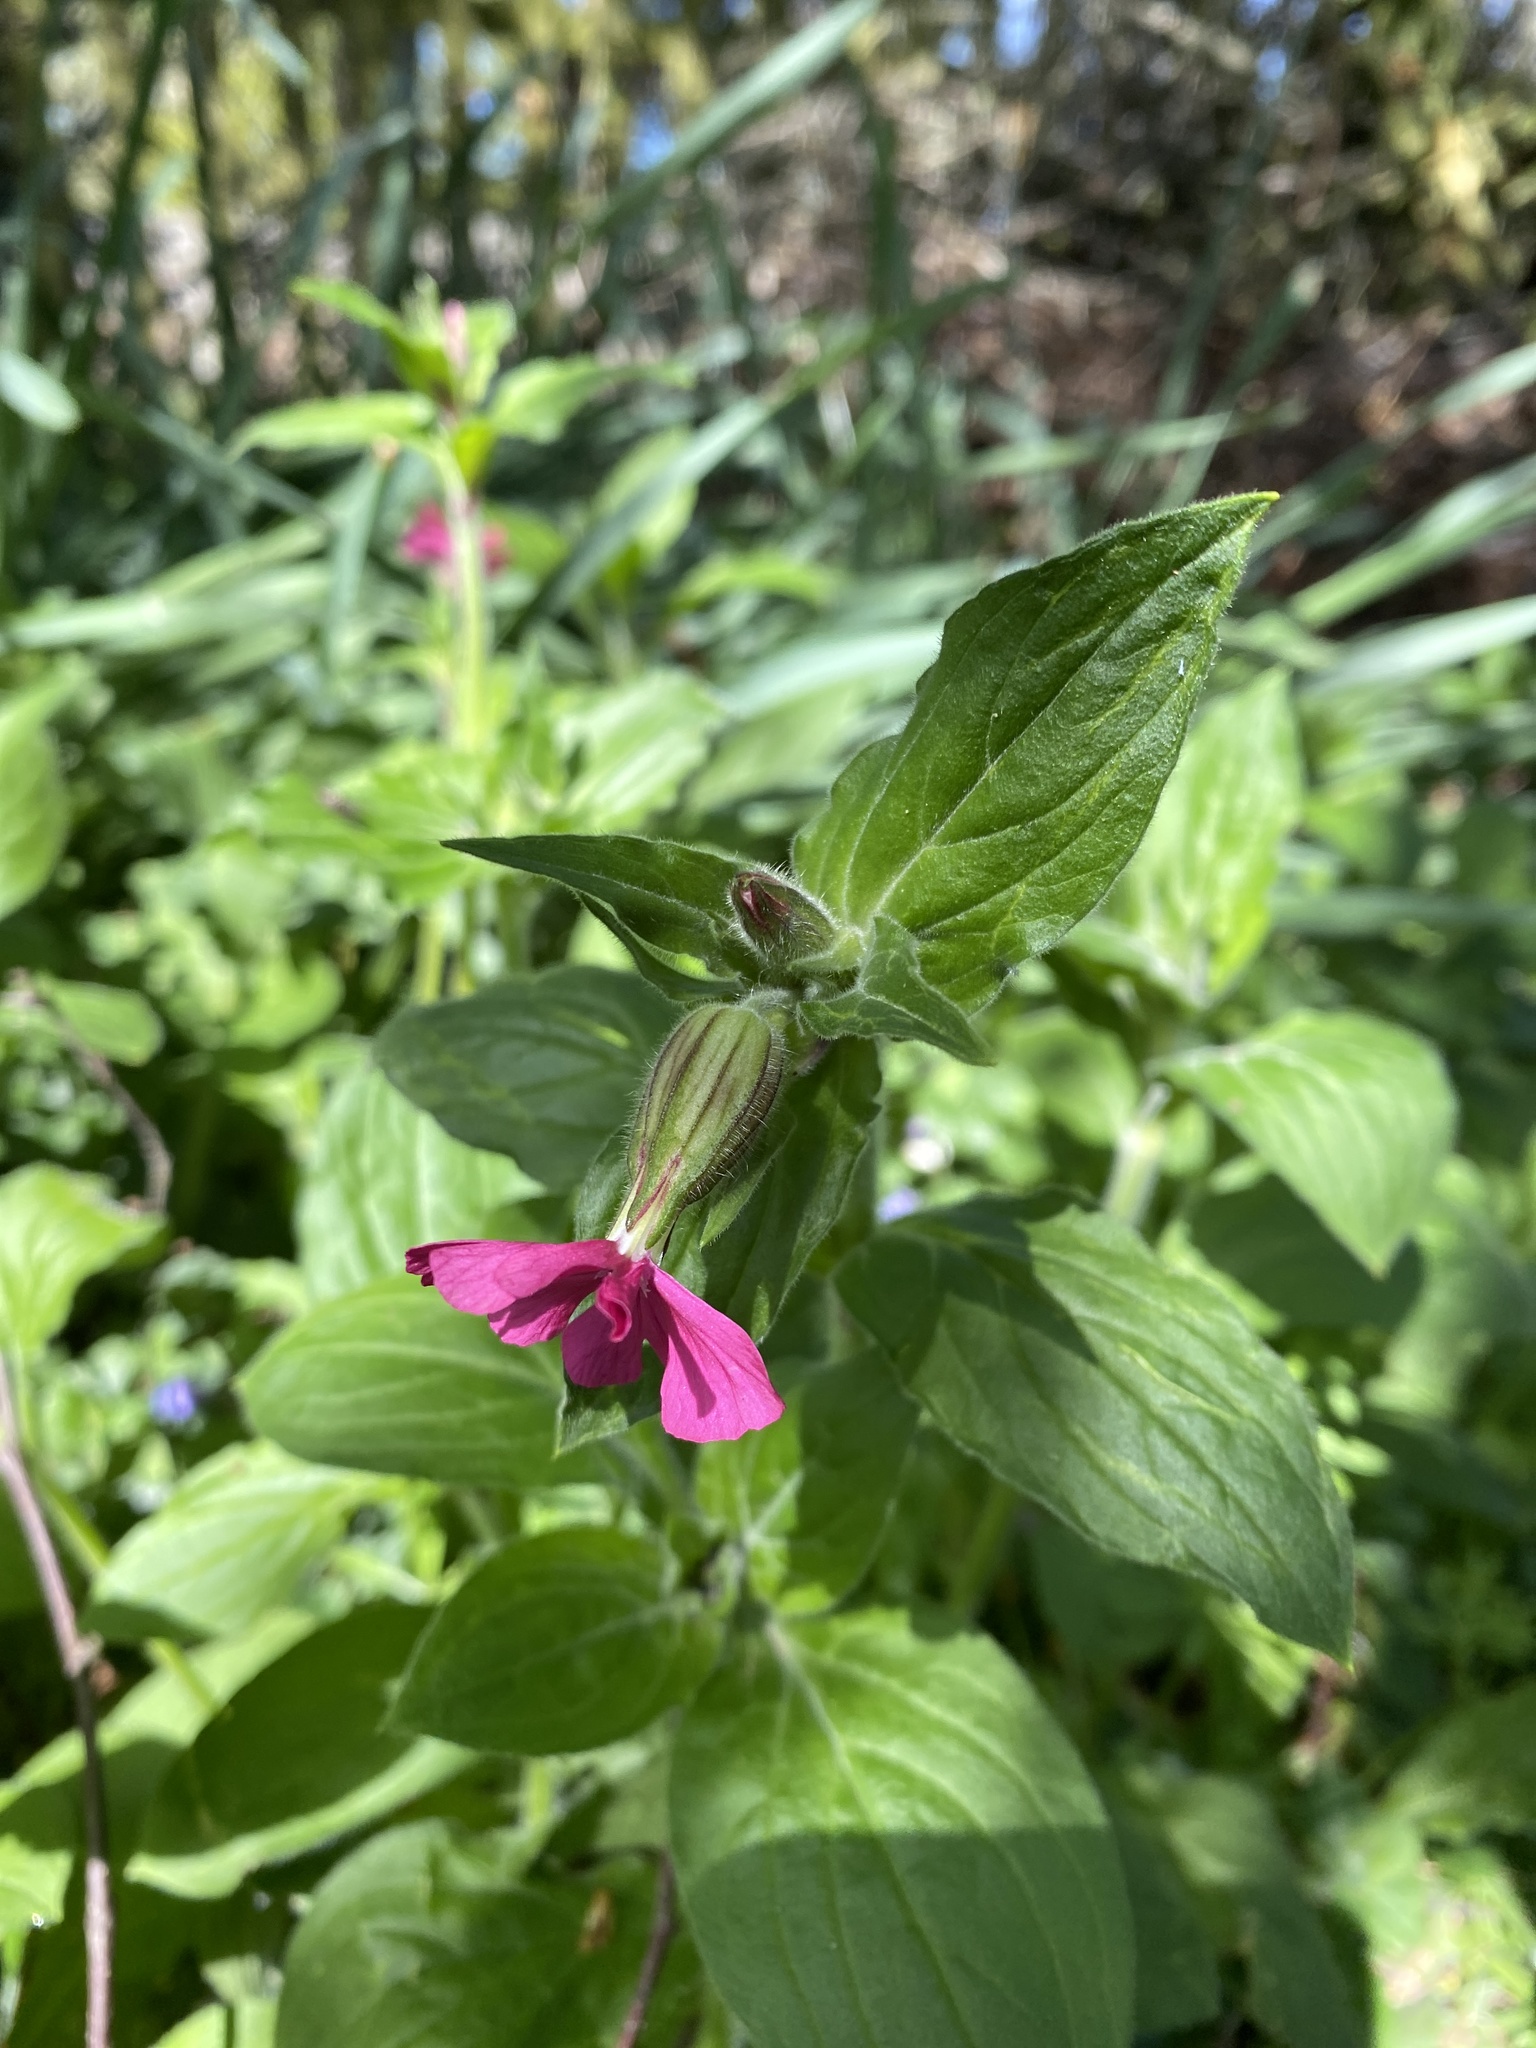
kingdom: Plantae
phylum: Tracheophyta
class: Magnoliopsida
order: Caryophyllales
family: Caryophyllaceae
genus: Silene
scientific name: Silene dioica
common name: Red campion
